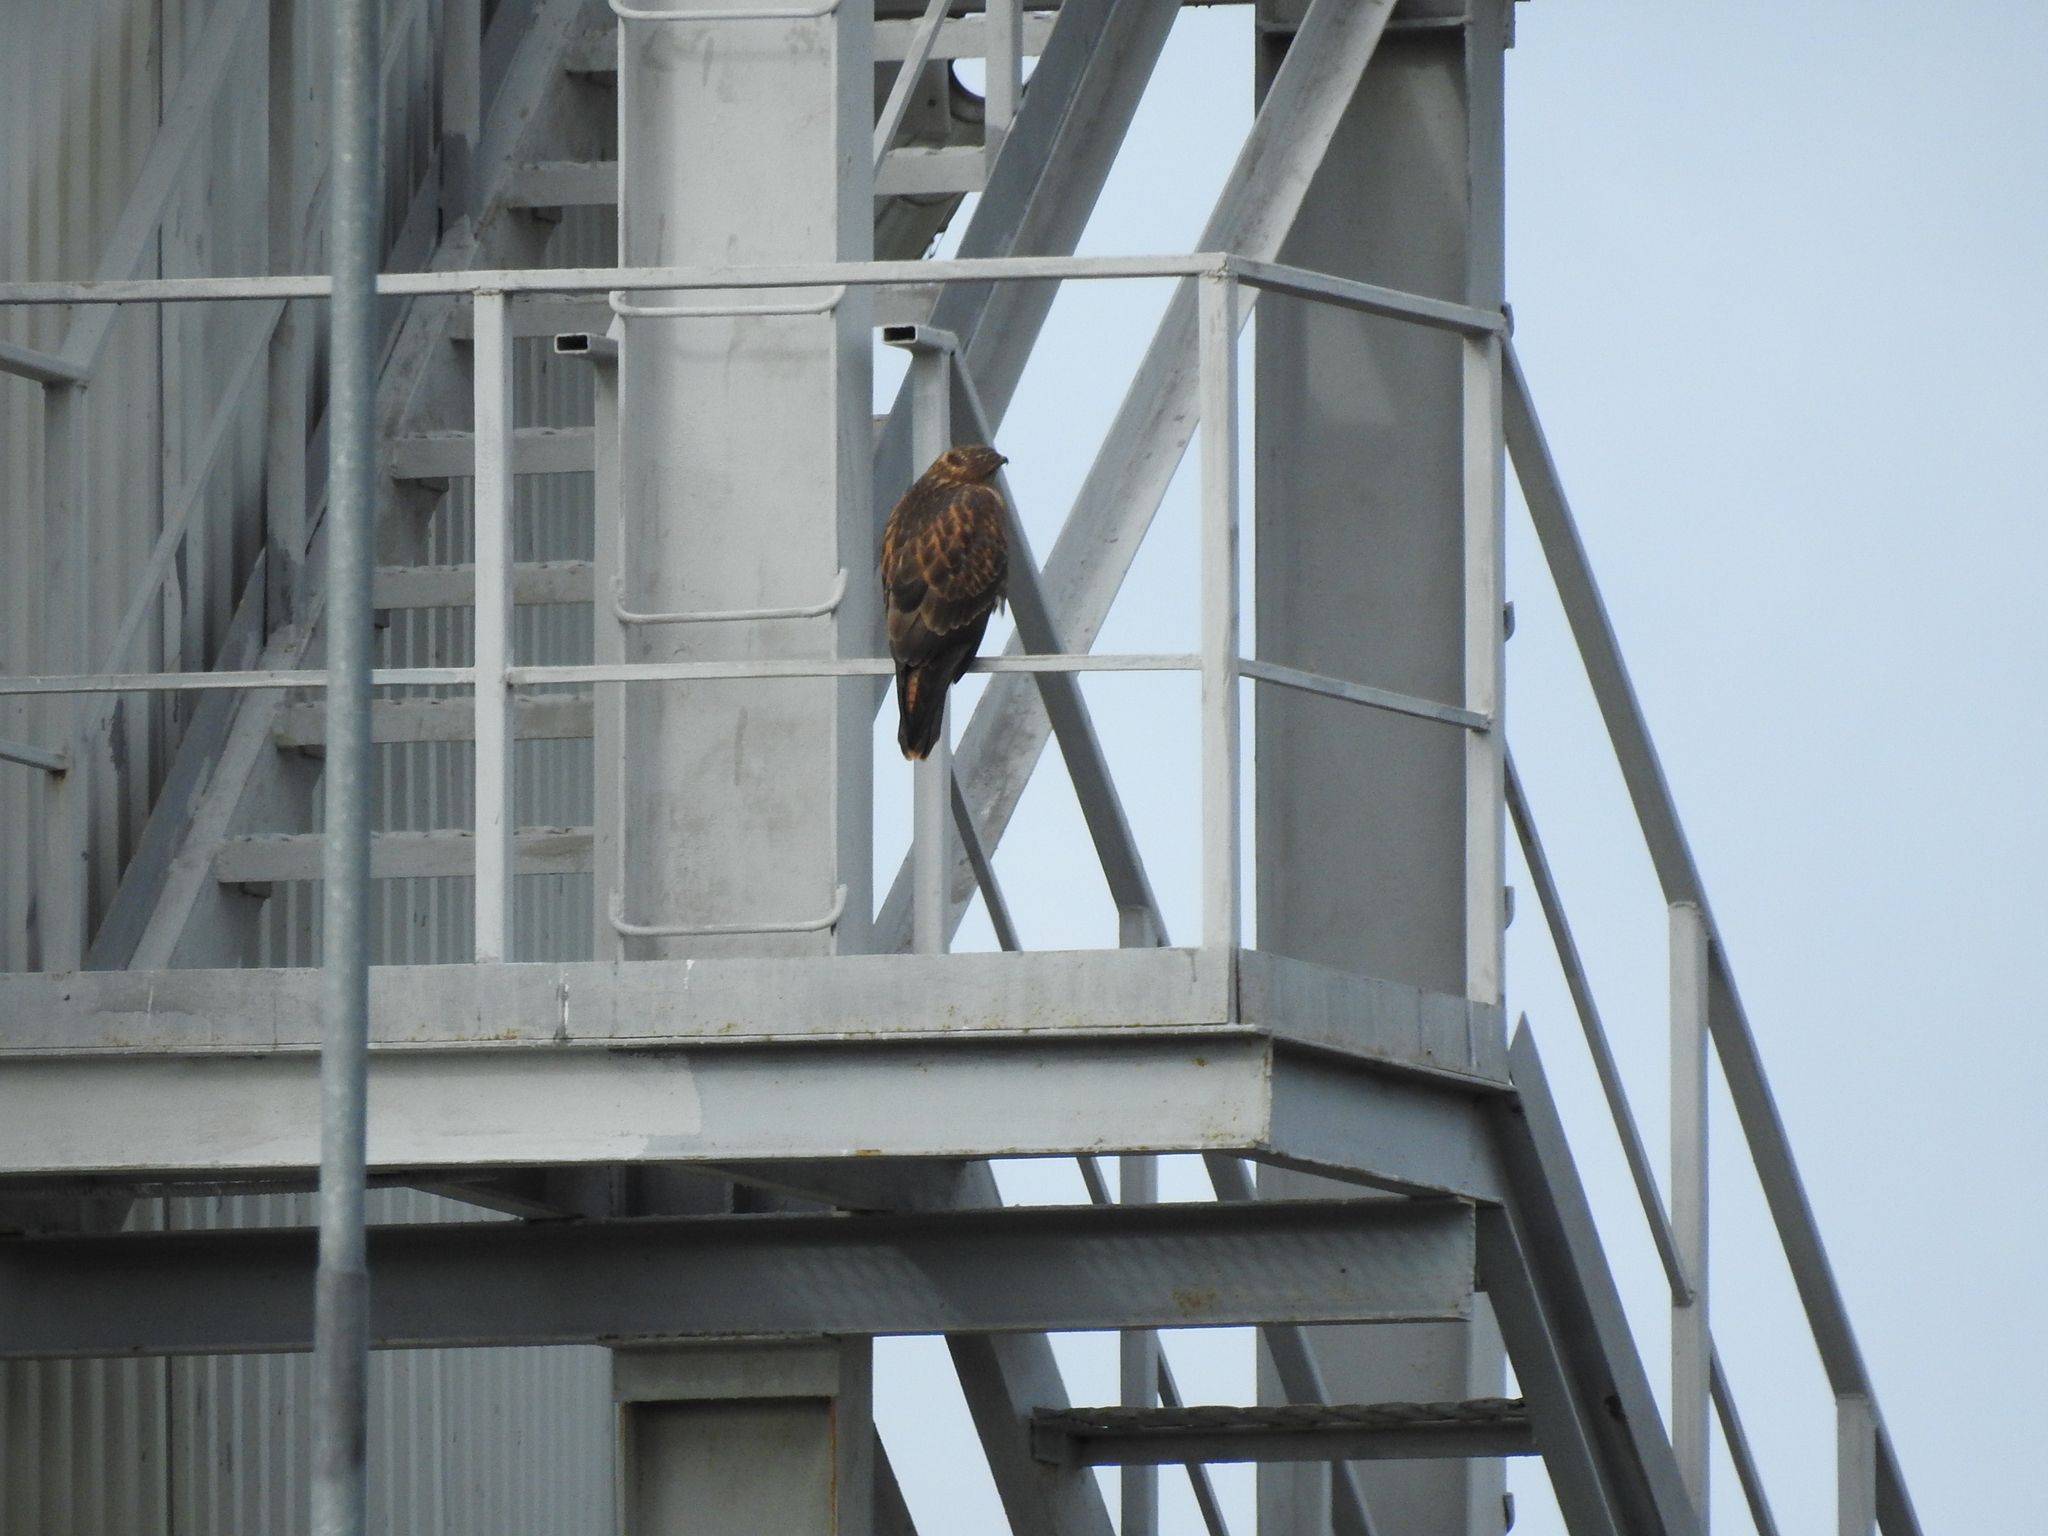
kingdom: Animalia
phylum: Chordata
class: Aves
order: Accipitriformes
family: Accipitridae
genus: Buteo
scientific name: Buteo buteo
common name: Common buzzard
